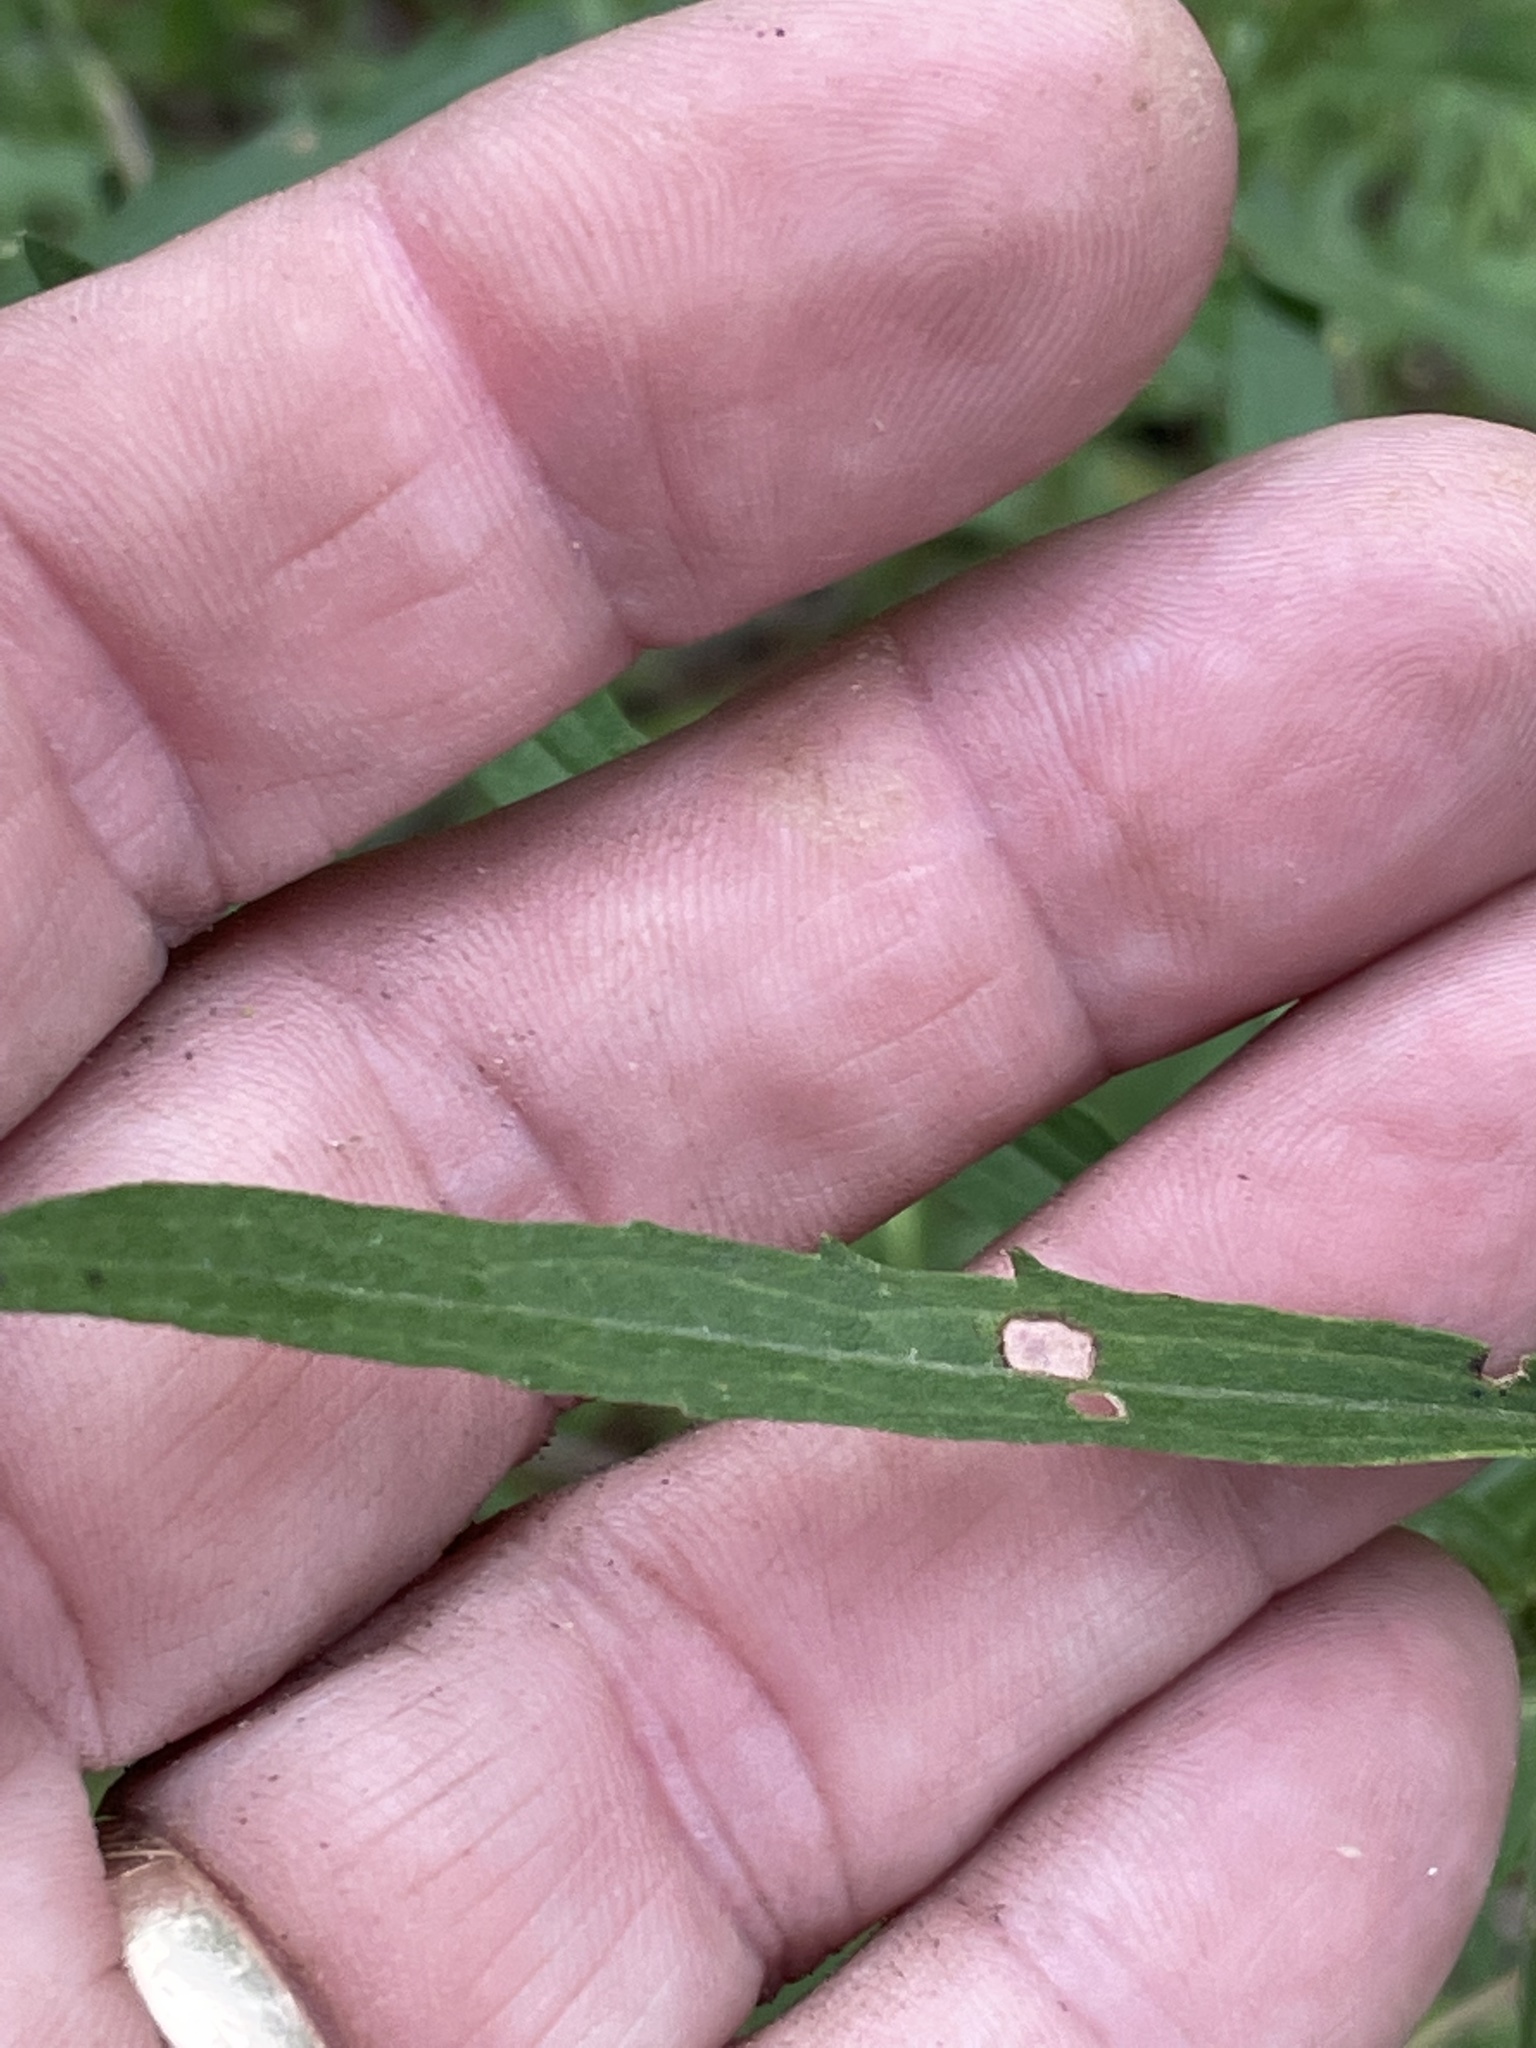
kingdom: Plantae
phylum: Tracheophyta
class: Magnoliopsida
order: Asterales
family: Asteraceae
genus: Eupatorium
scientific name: Eupatorium torreyanum
